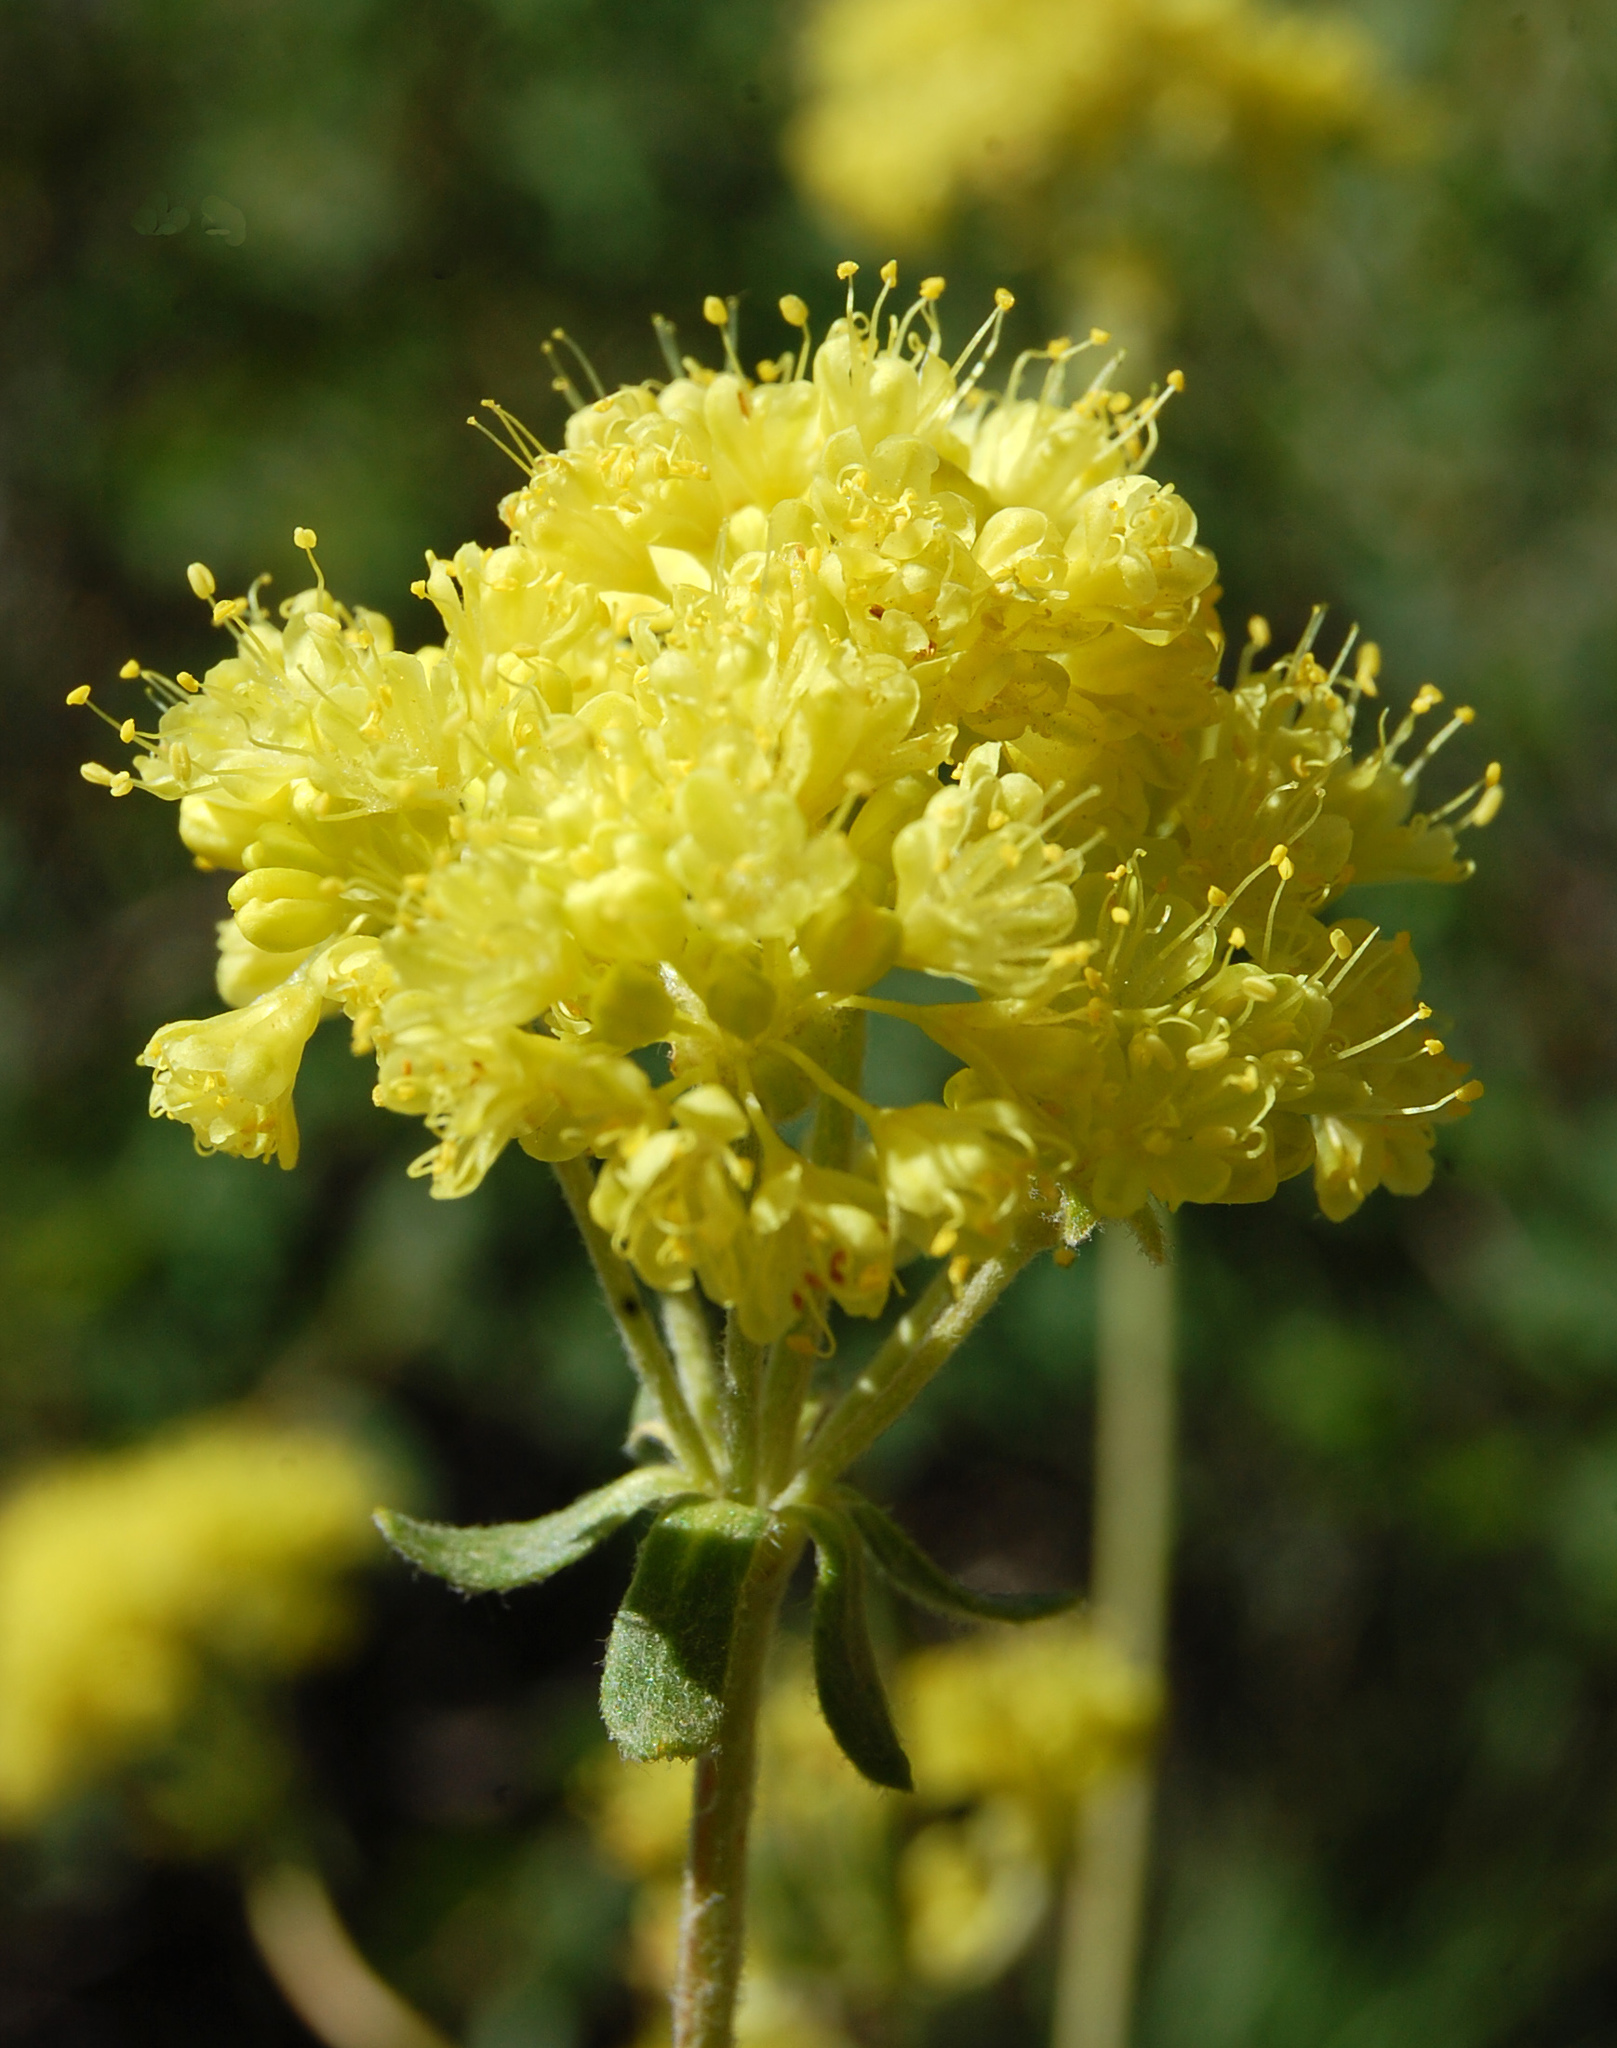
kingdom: Plantae
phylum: Tracheophyta
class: Magnoliopsida
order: Caryophyllales
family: Polygonaceae
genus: Eriogonum
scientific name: Eriogonum umbellatum
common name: Sulfur-buckwheat
